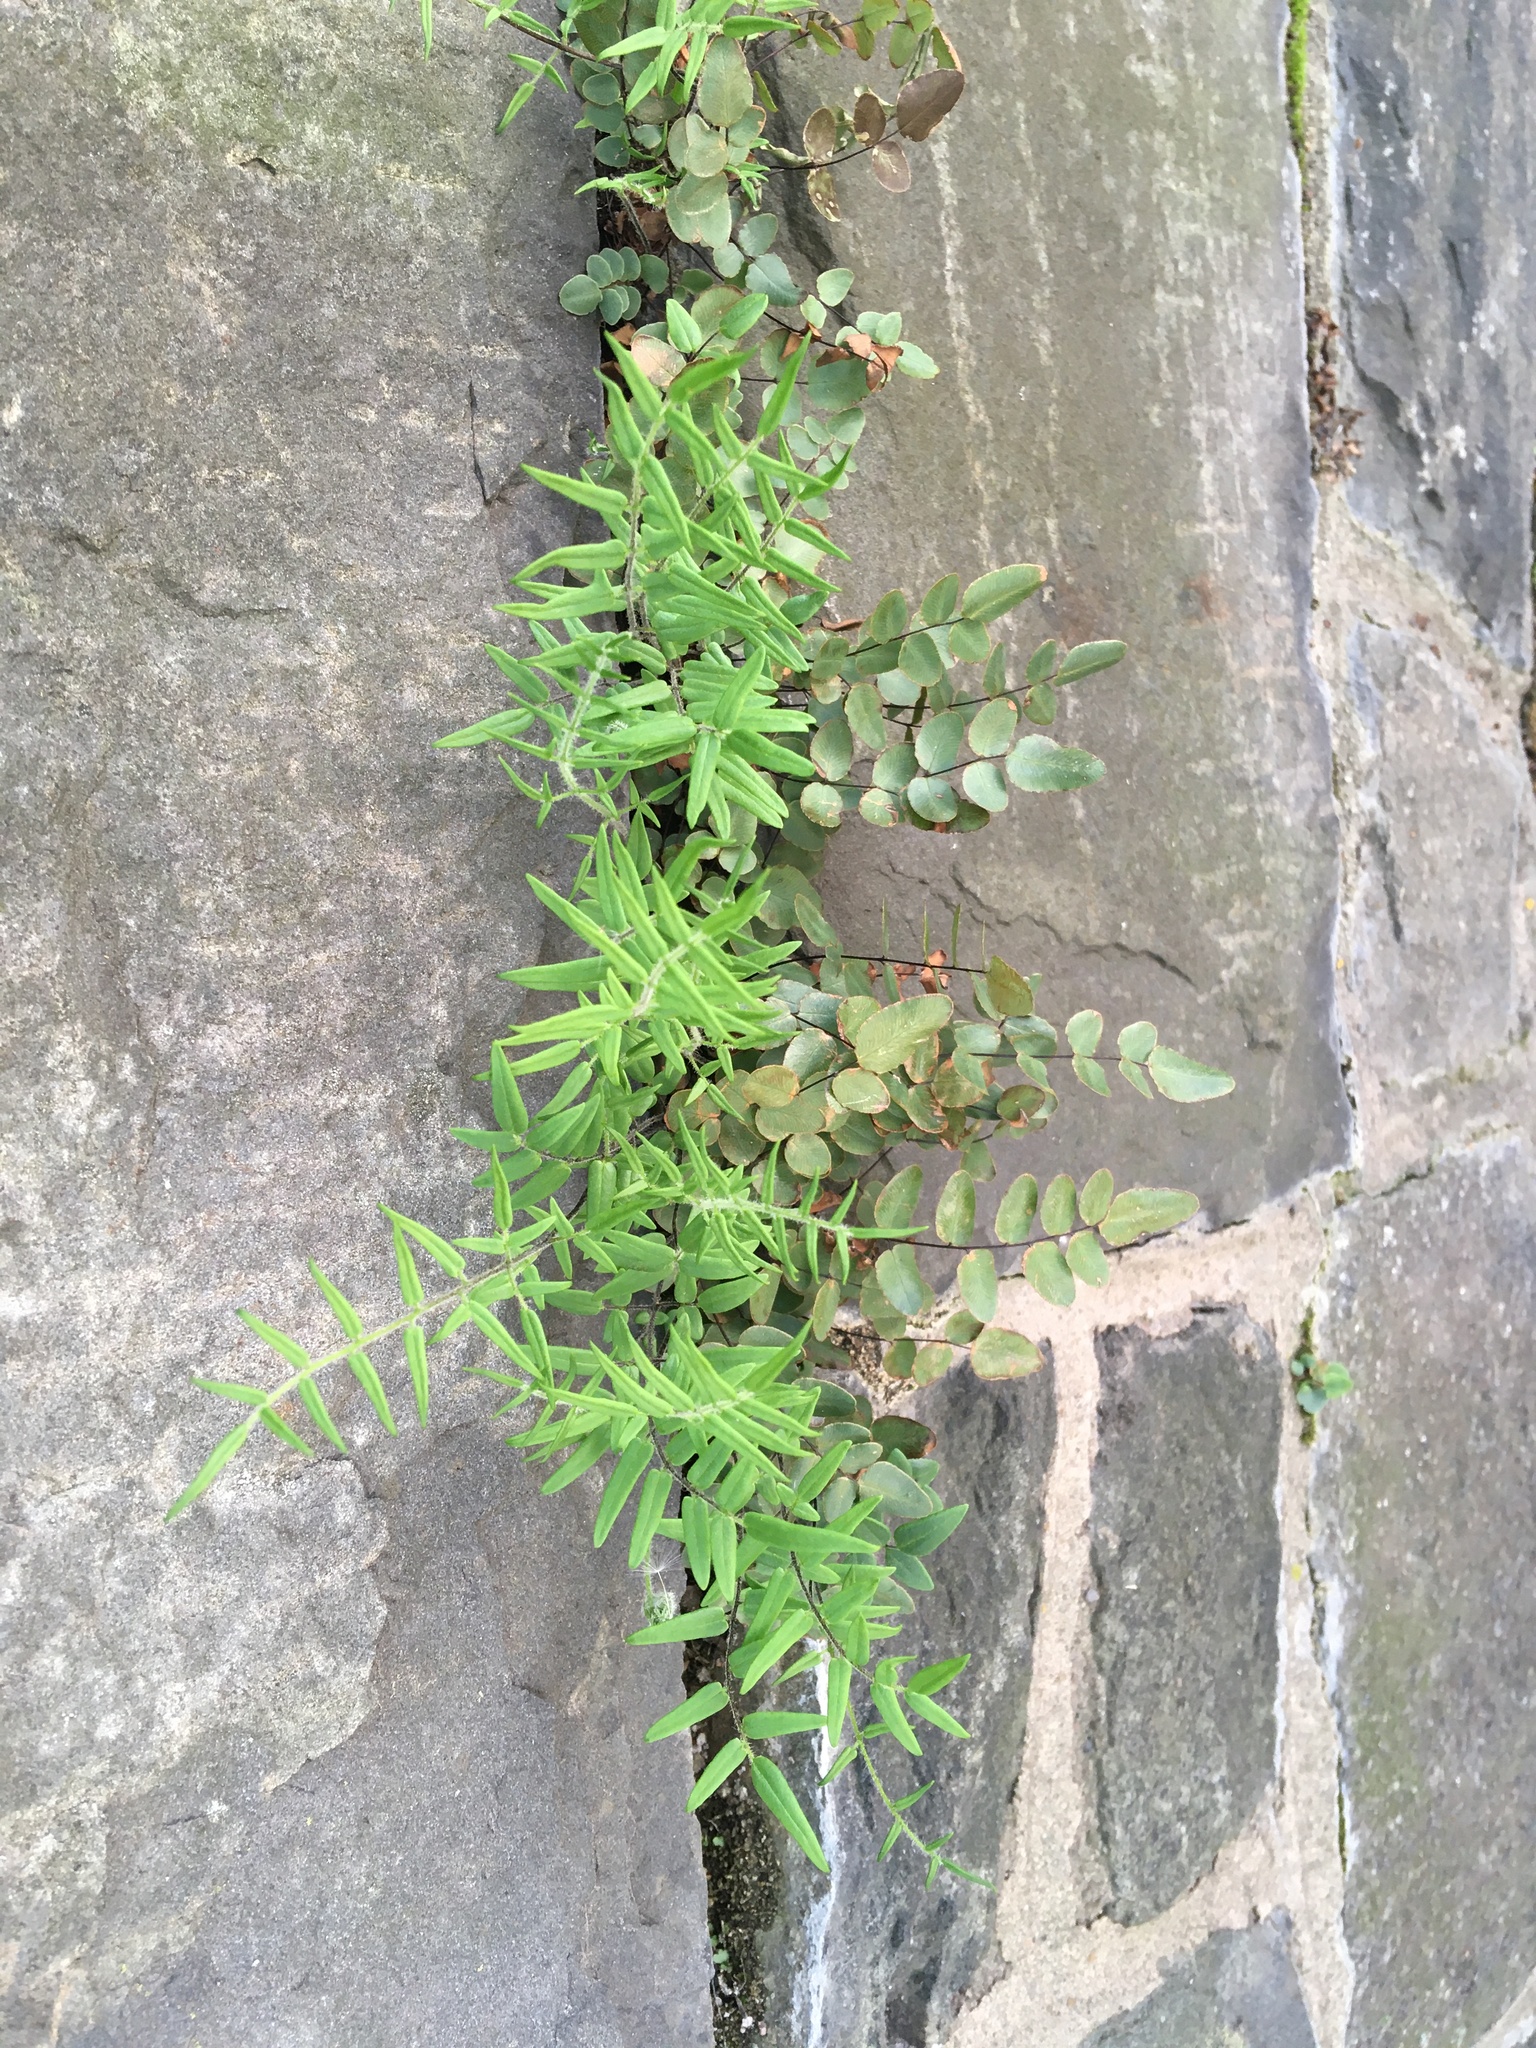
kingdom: Plantae
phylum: Tracheophyta
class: Polypodiopsida
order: Polypodiales
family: Pteridaceae
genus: Pellaea
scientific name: Pellaea atropurpurea
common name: Hairy cliffbrake
